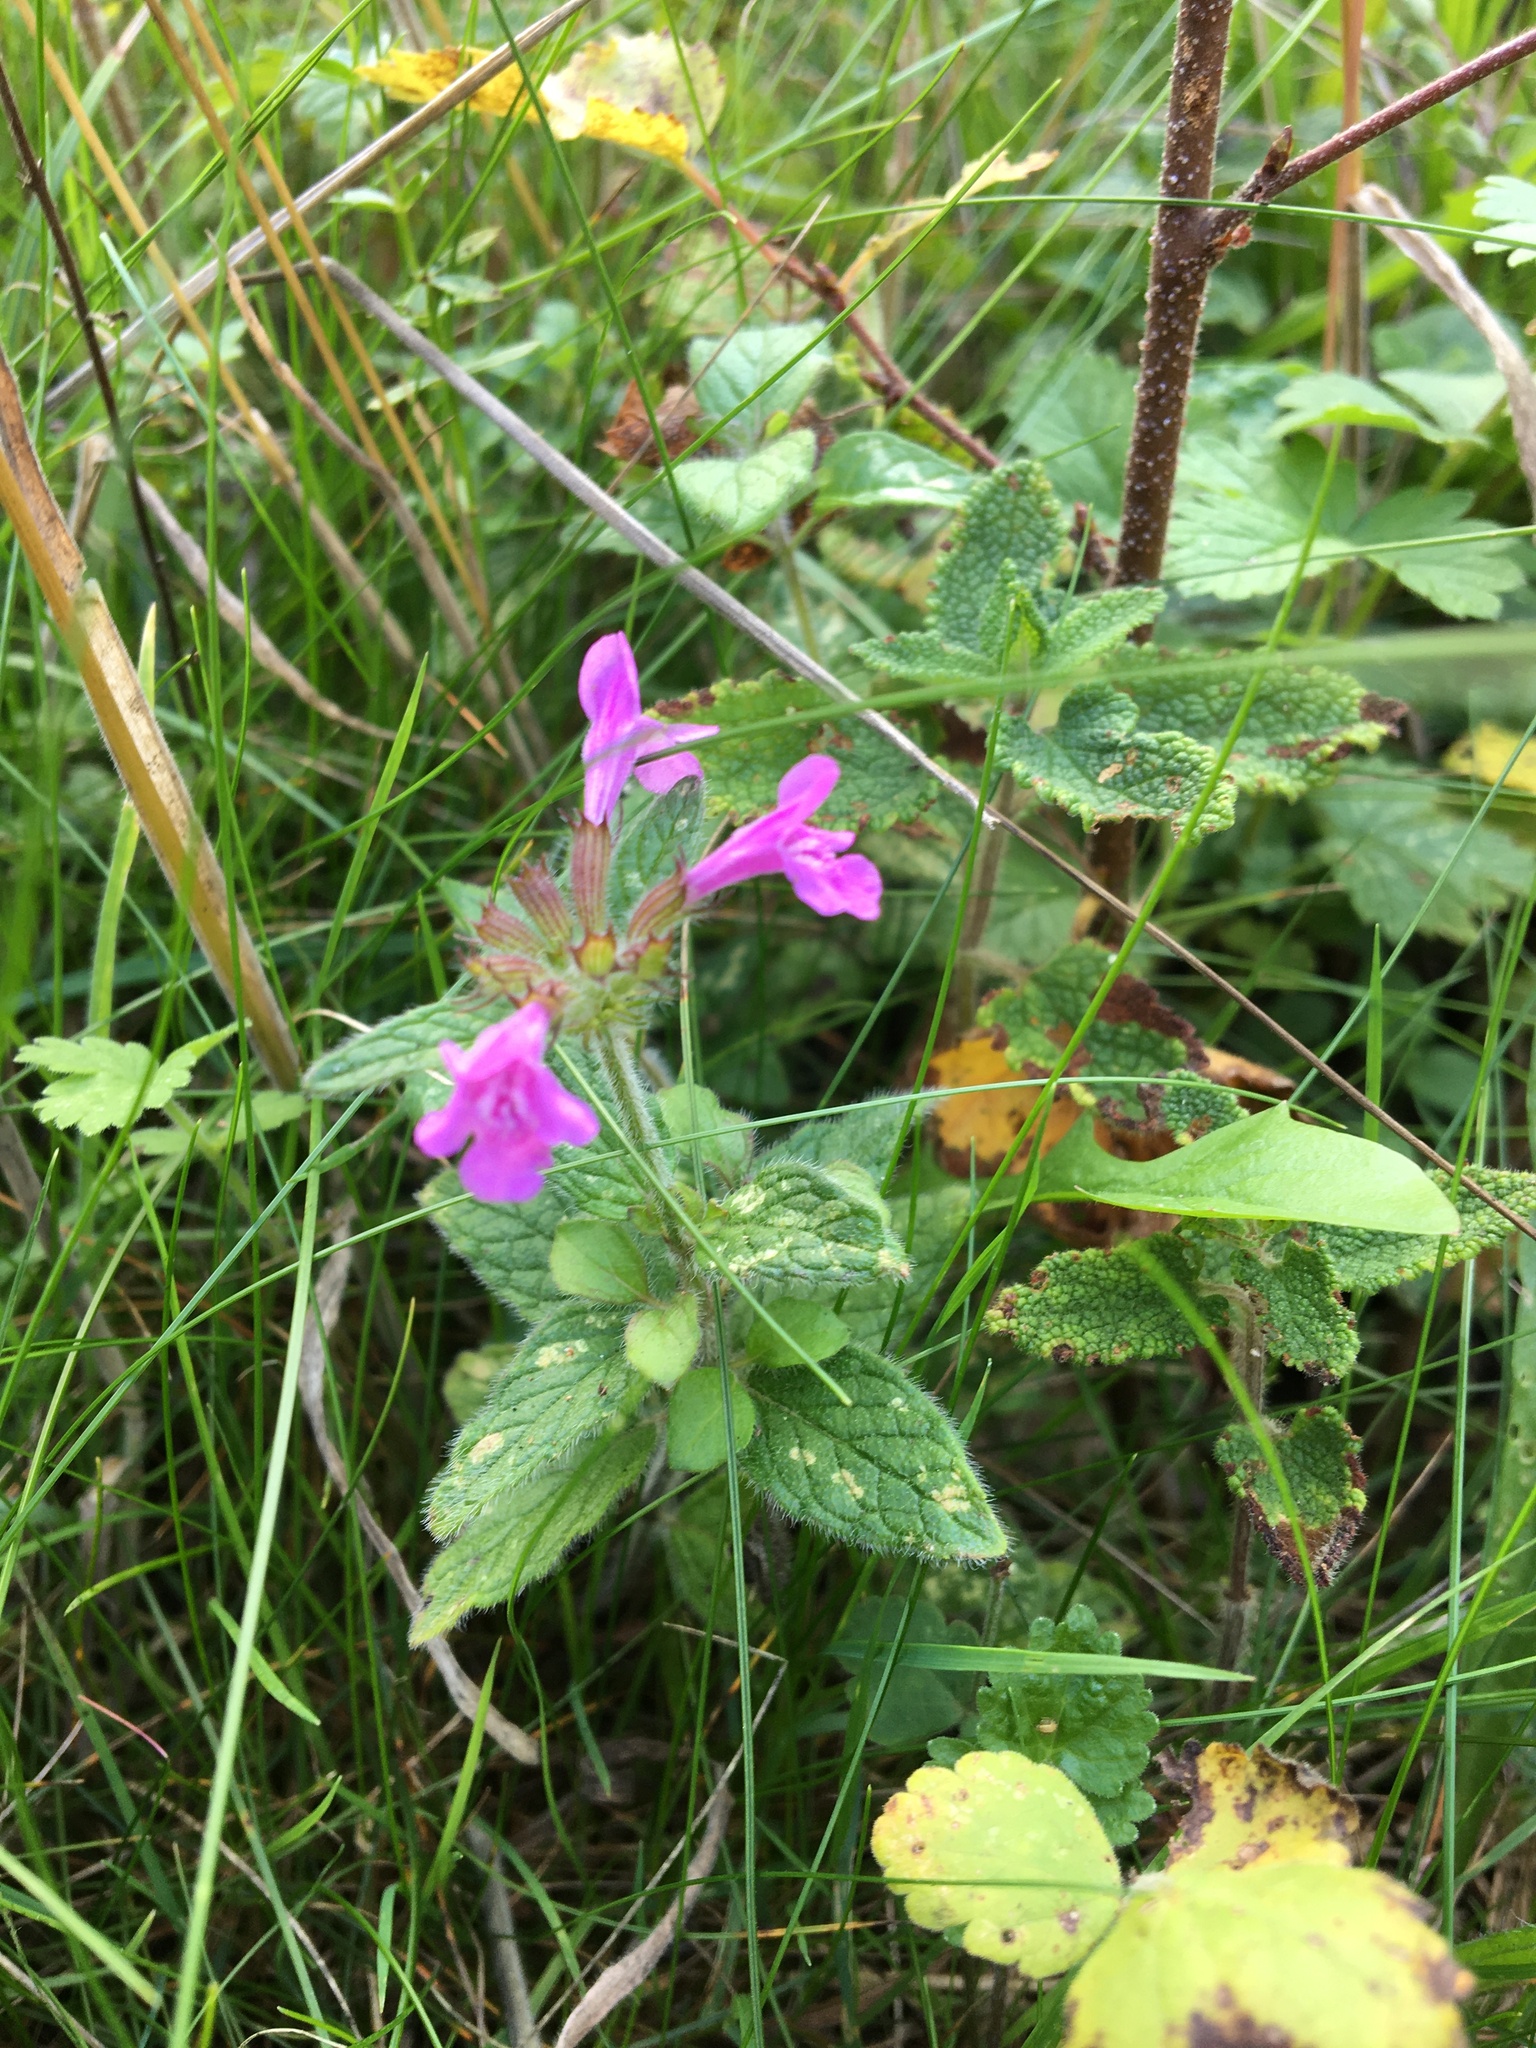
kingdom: Plantae
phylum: Tracheophyta
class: Magnoliopsida
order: Lamiales
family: Lamiaceae
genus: Clinopodium
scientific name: Clinopodium vulgare
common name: Wild basil
